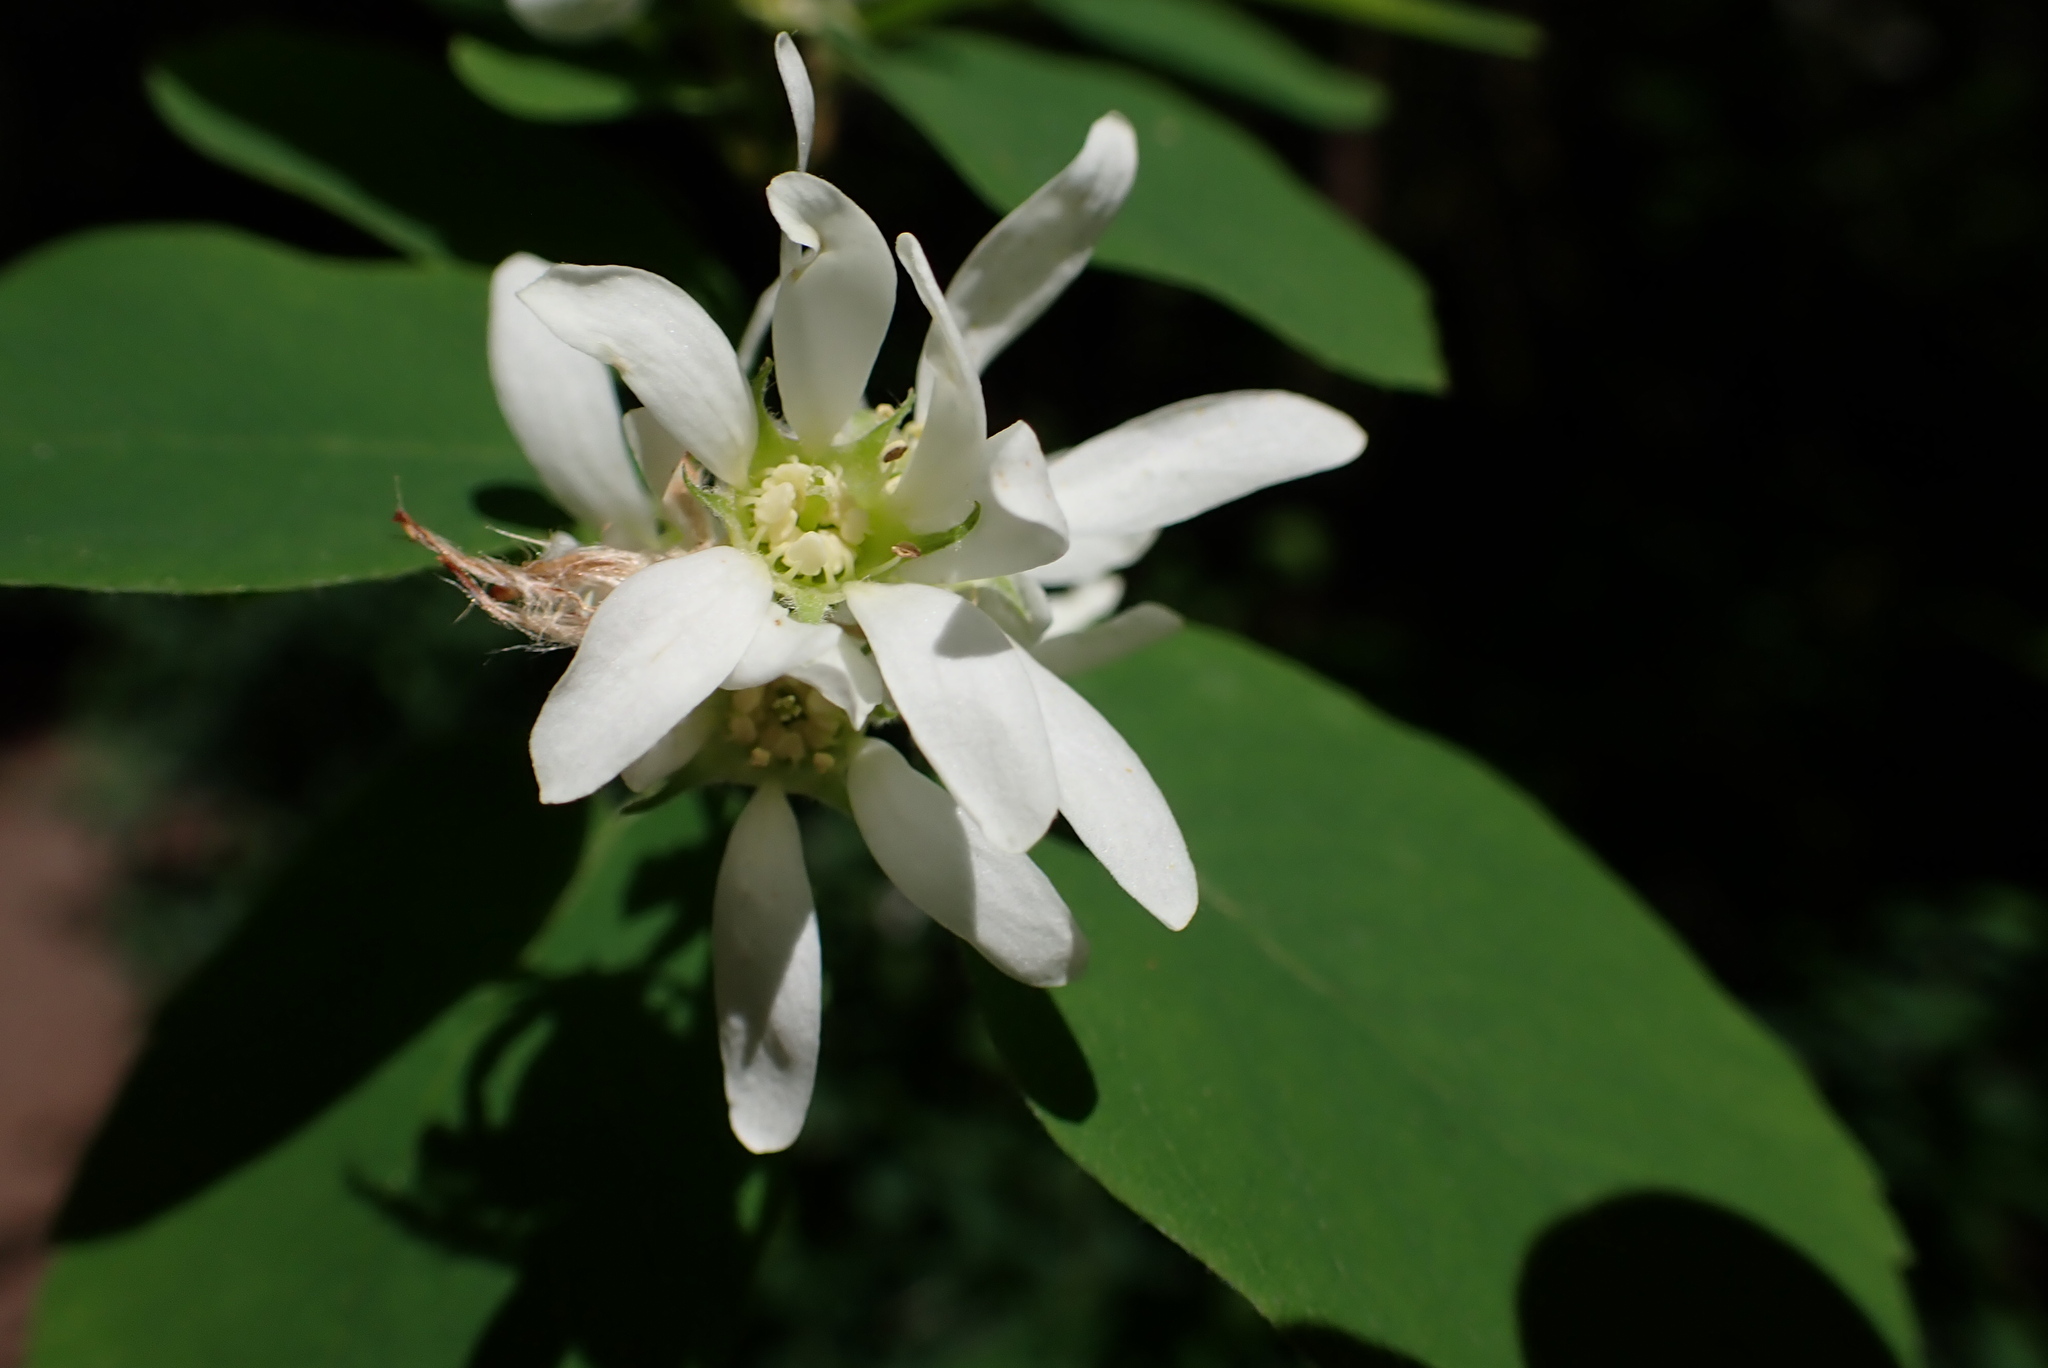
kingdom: Plantae
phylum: Tracheophyta
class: Magnoliopsida
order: Rosales
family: Rosaceae
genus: Amelanchier
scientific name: Amelanchier alnifolia
